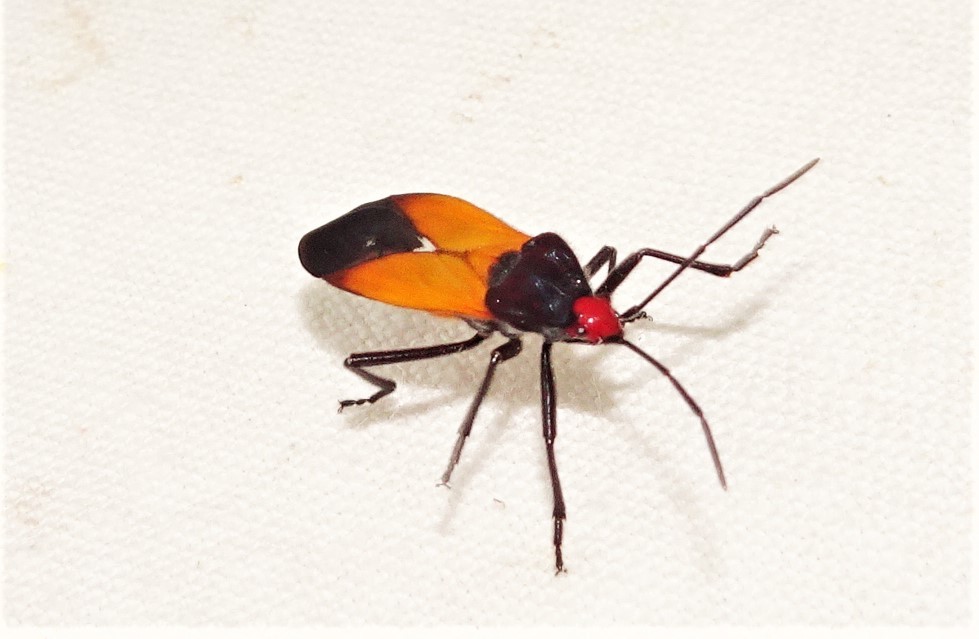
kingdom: Animalia
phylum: Arthropoda
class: Insecta
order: Hemiptera
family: Lygaeidae
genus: Oncopeltus
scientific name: Oncopeltus sordidus
